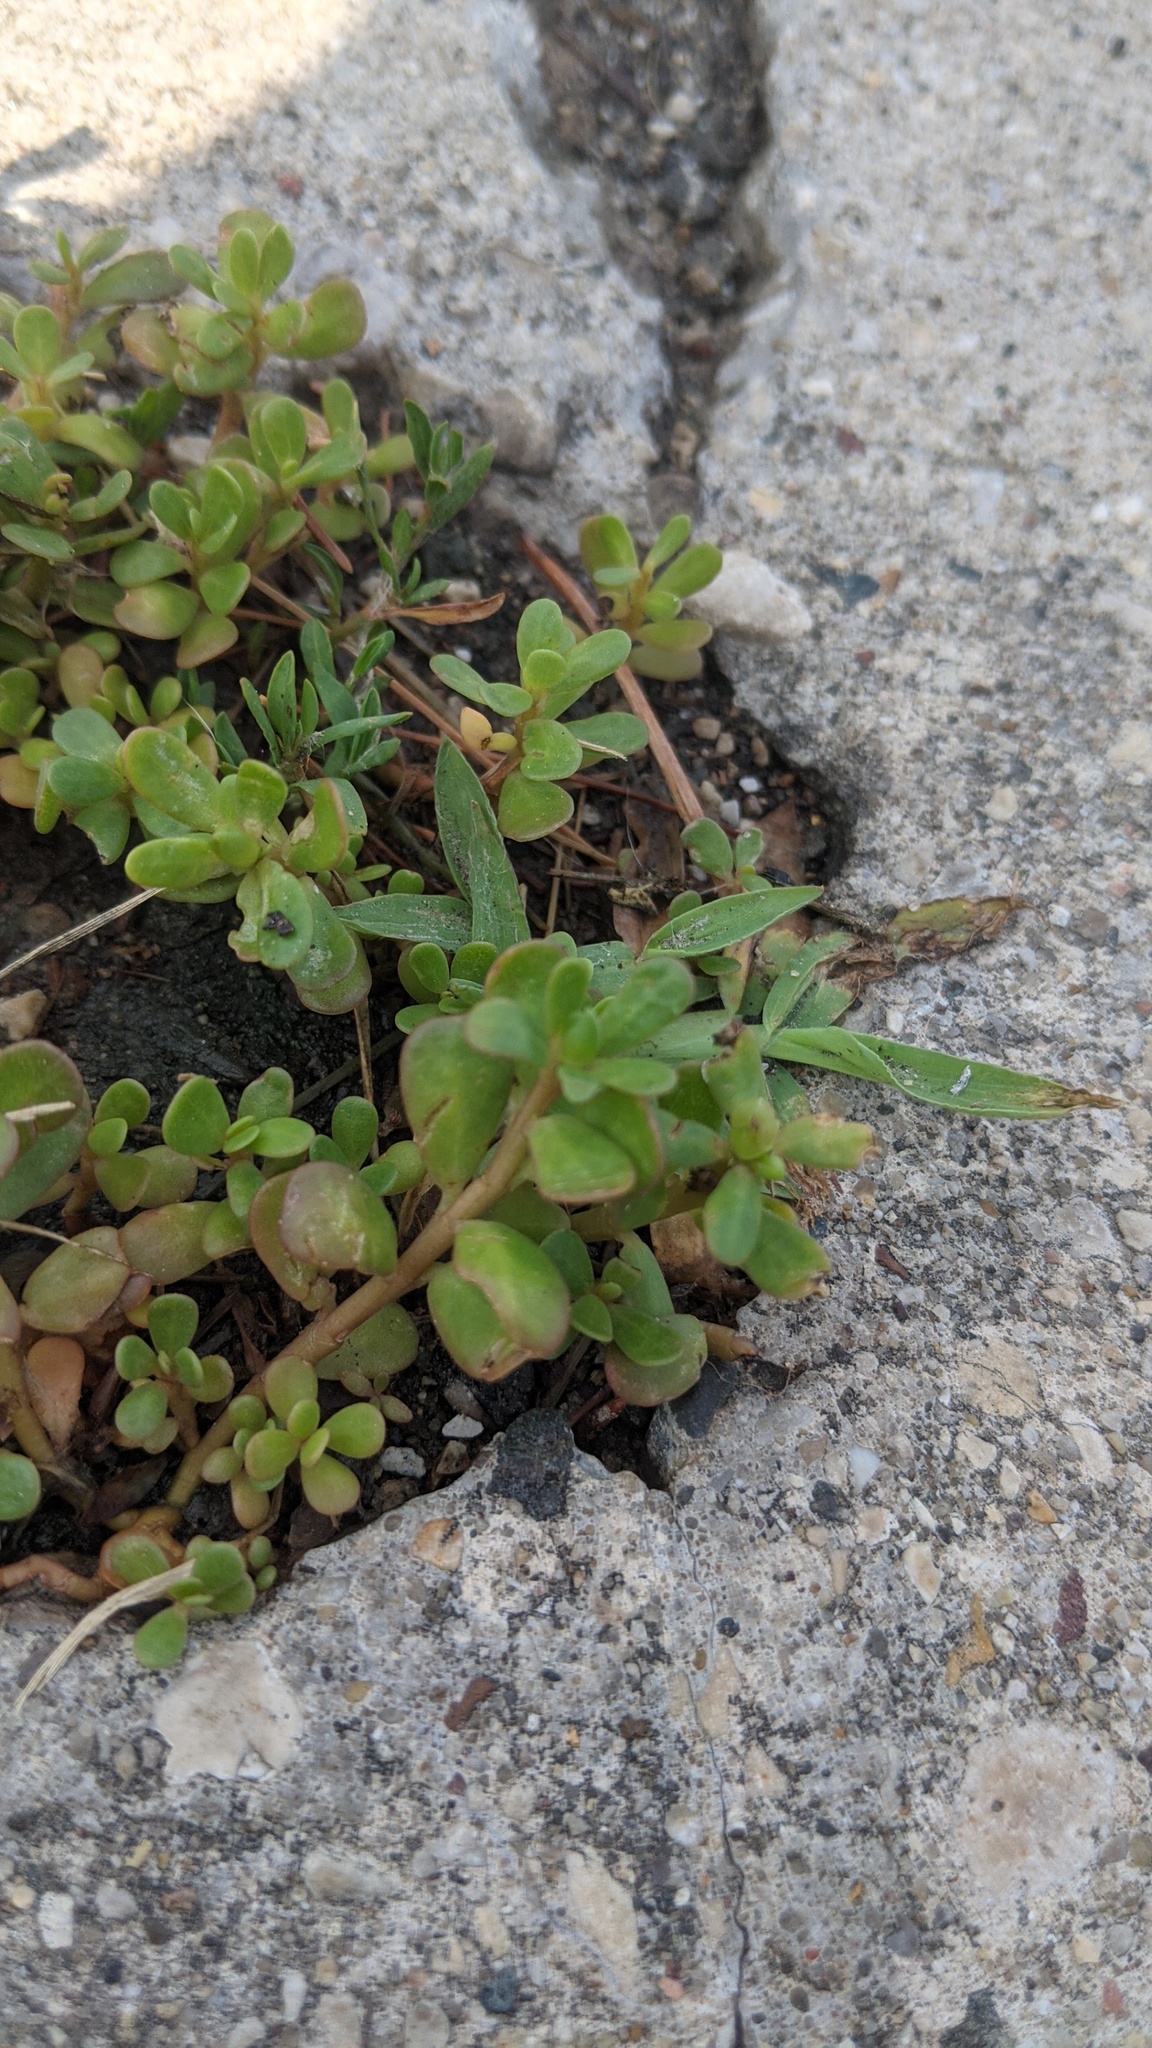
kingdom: Plantae
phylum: Tracheophyta
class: Magnoliopsida
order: Caryophyllales
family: Portulacaceae
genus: Portulaca
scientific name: Portulaca oleracea
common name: Common purslane
